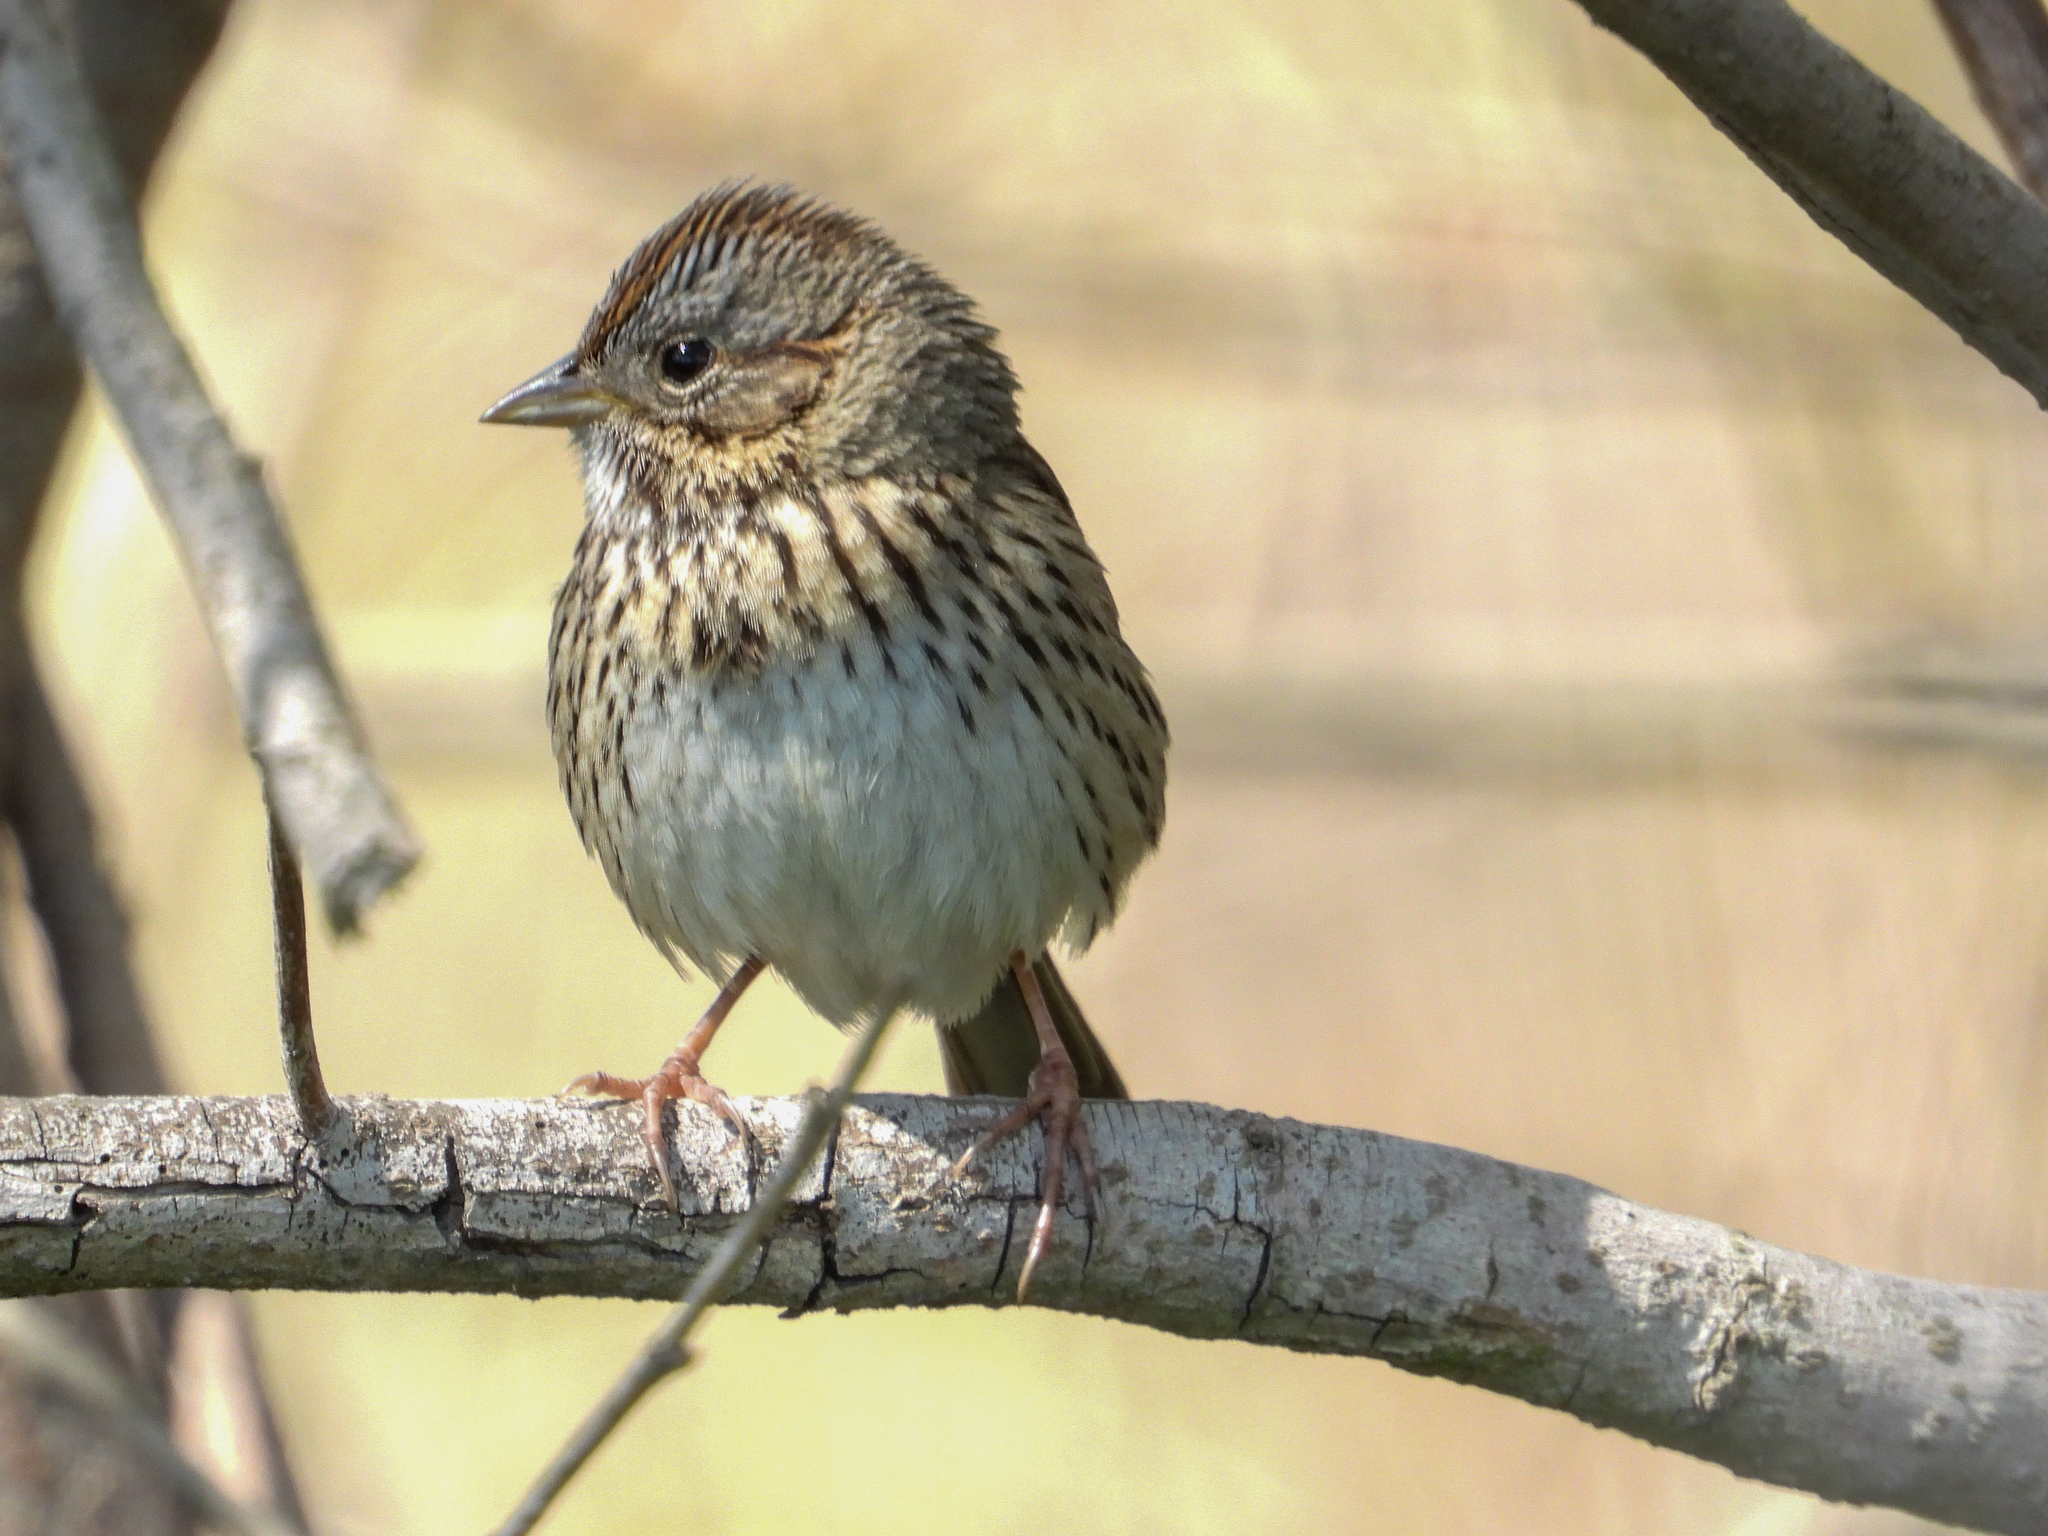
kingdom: Animalia
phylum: Chordata
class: Aves
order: Passeriformes
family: Passerellidae
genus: Melospiza
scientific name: Melospiza lincolnii
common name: Lincoln's sparrow
